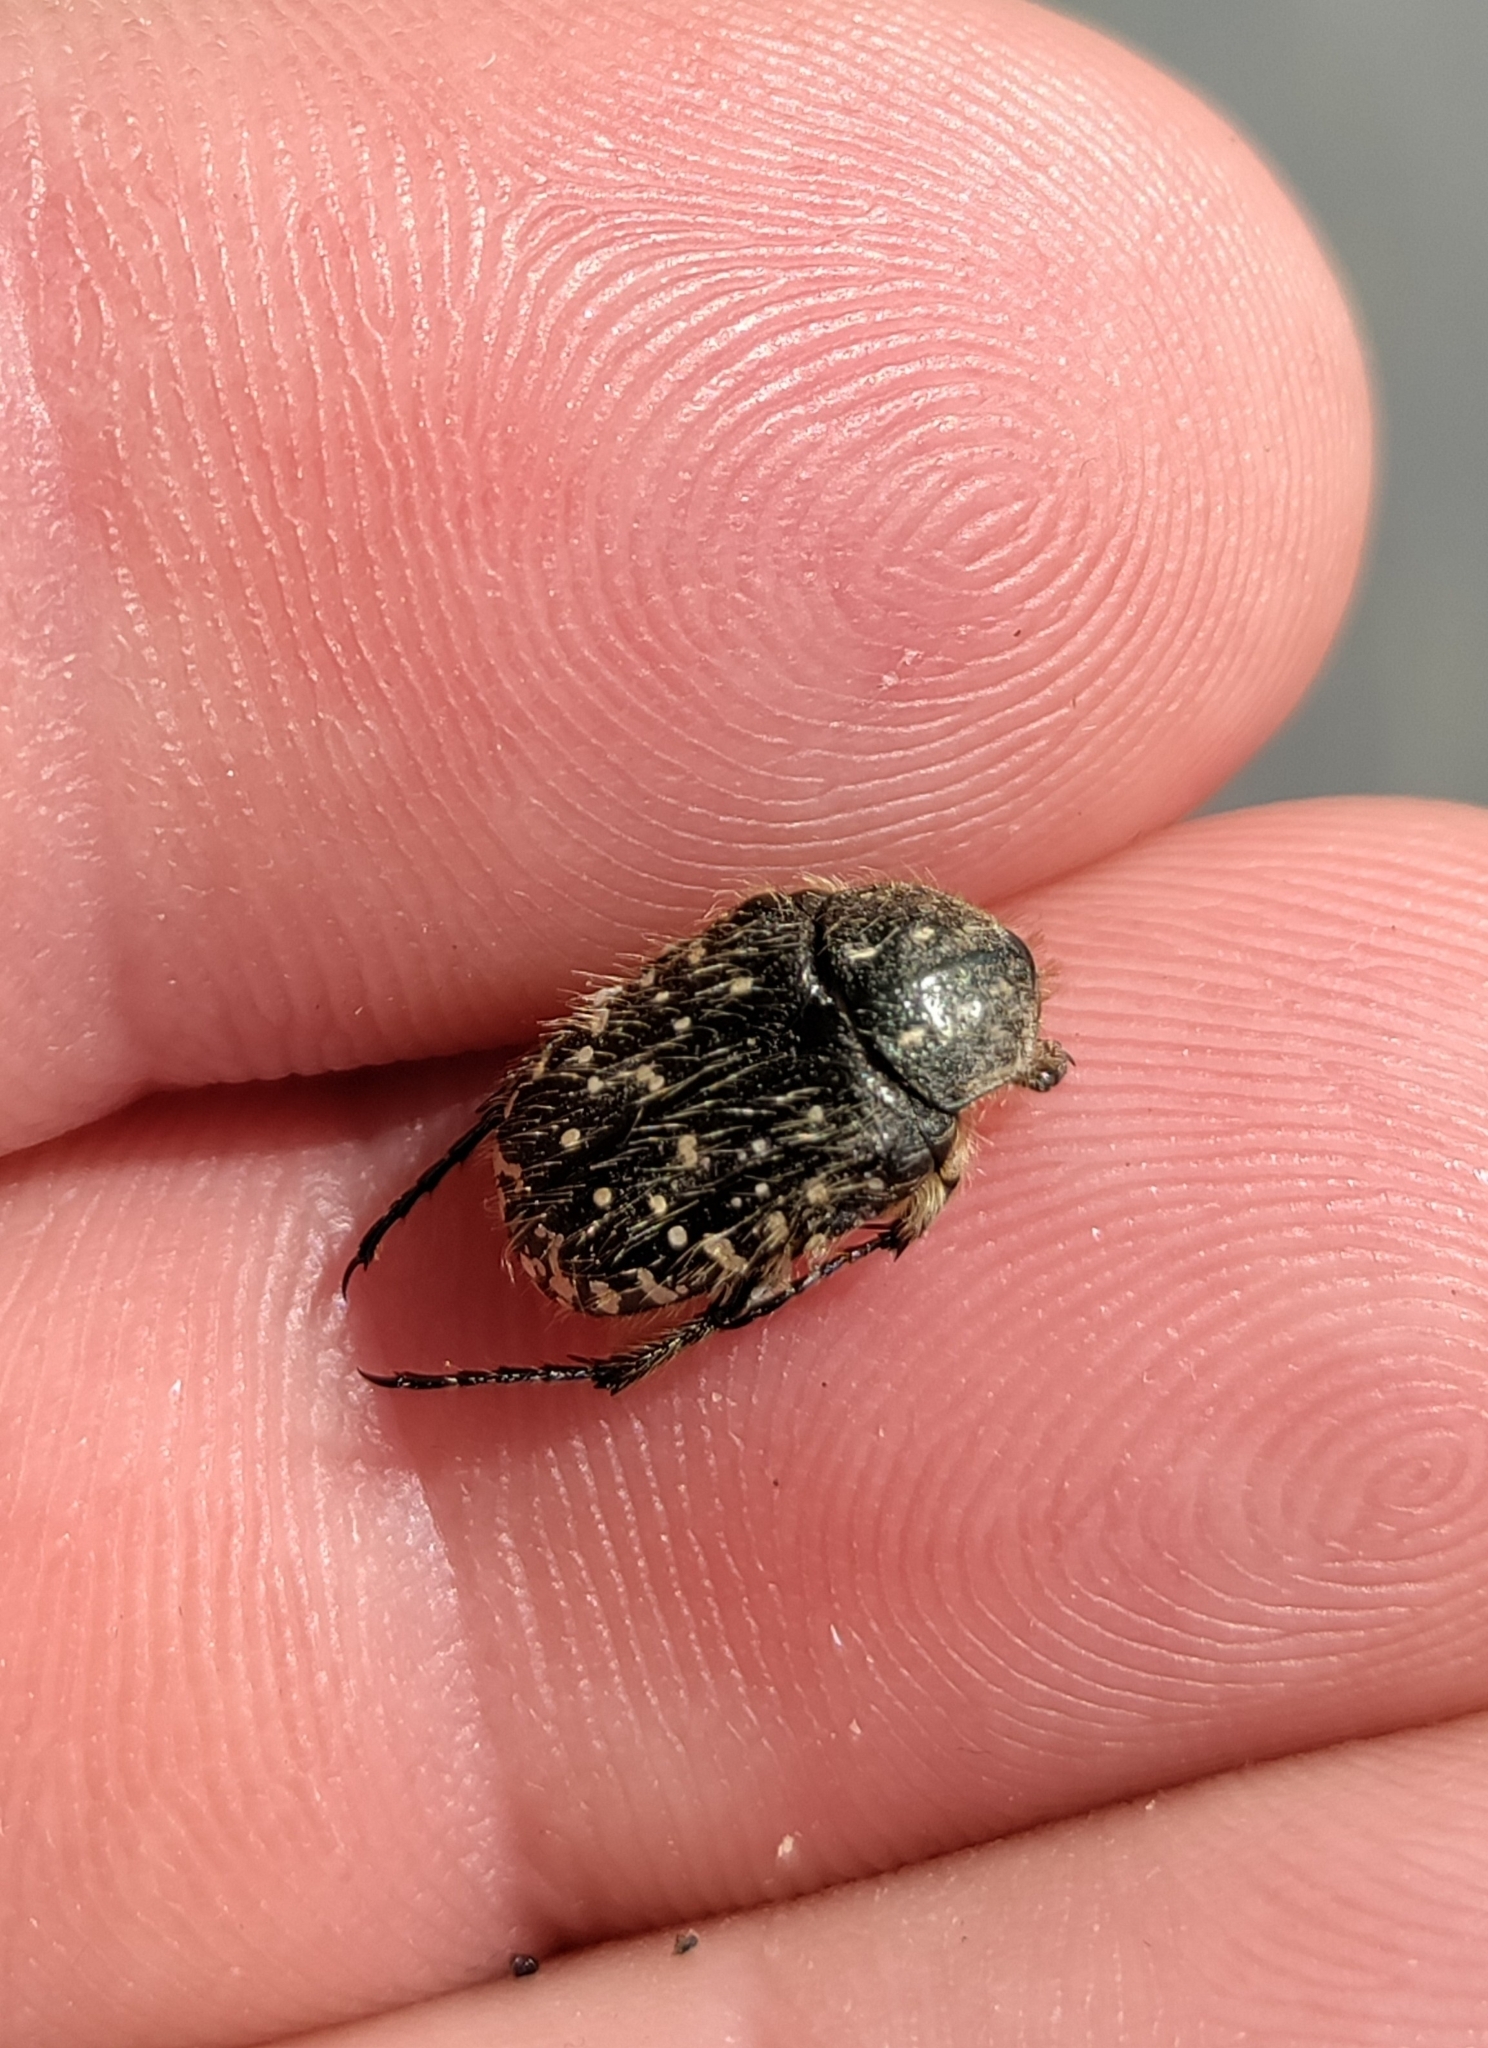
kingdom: Animalia
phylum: Arthropoda
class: Insecta
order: Coleoptera
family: Scarabaeidae
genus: Oxythyrea
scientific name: Oxythyrea funesta
